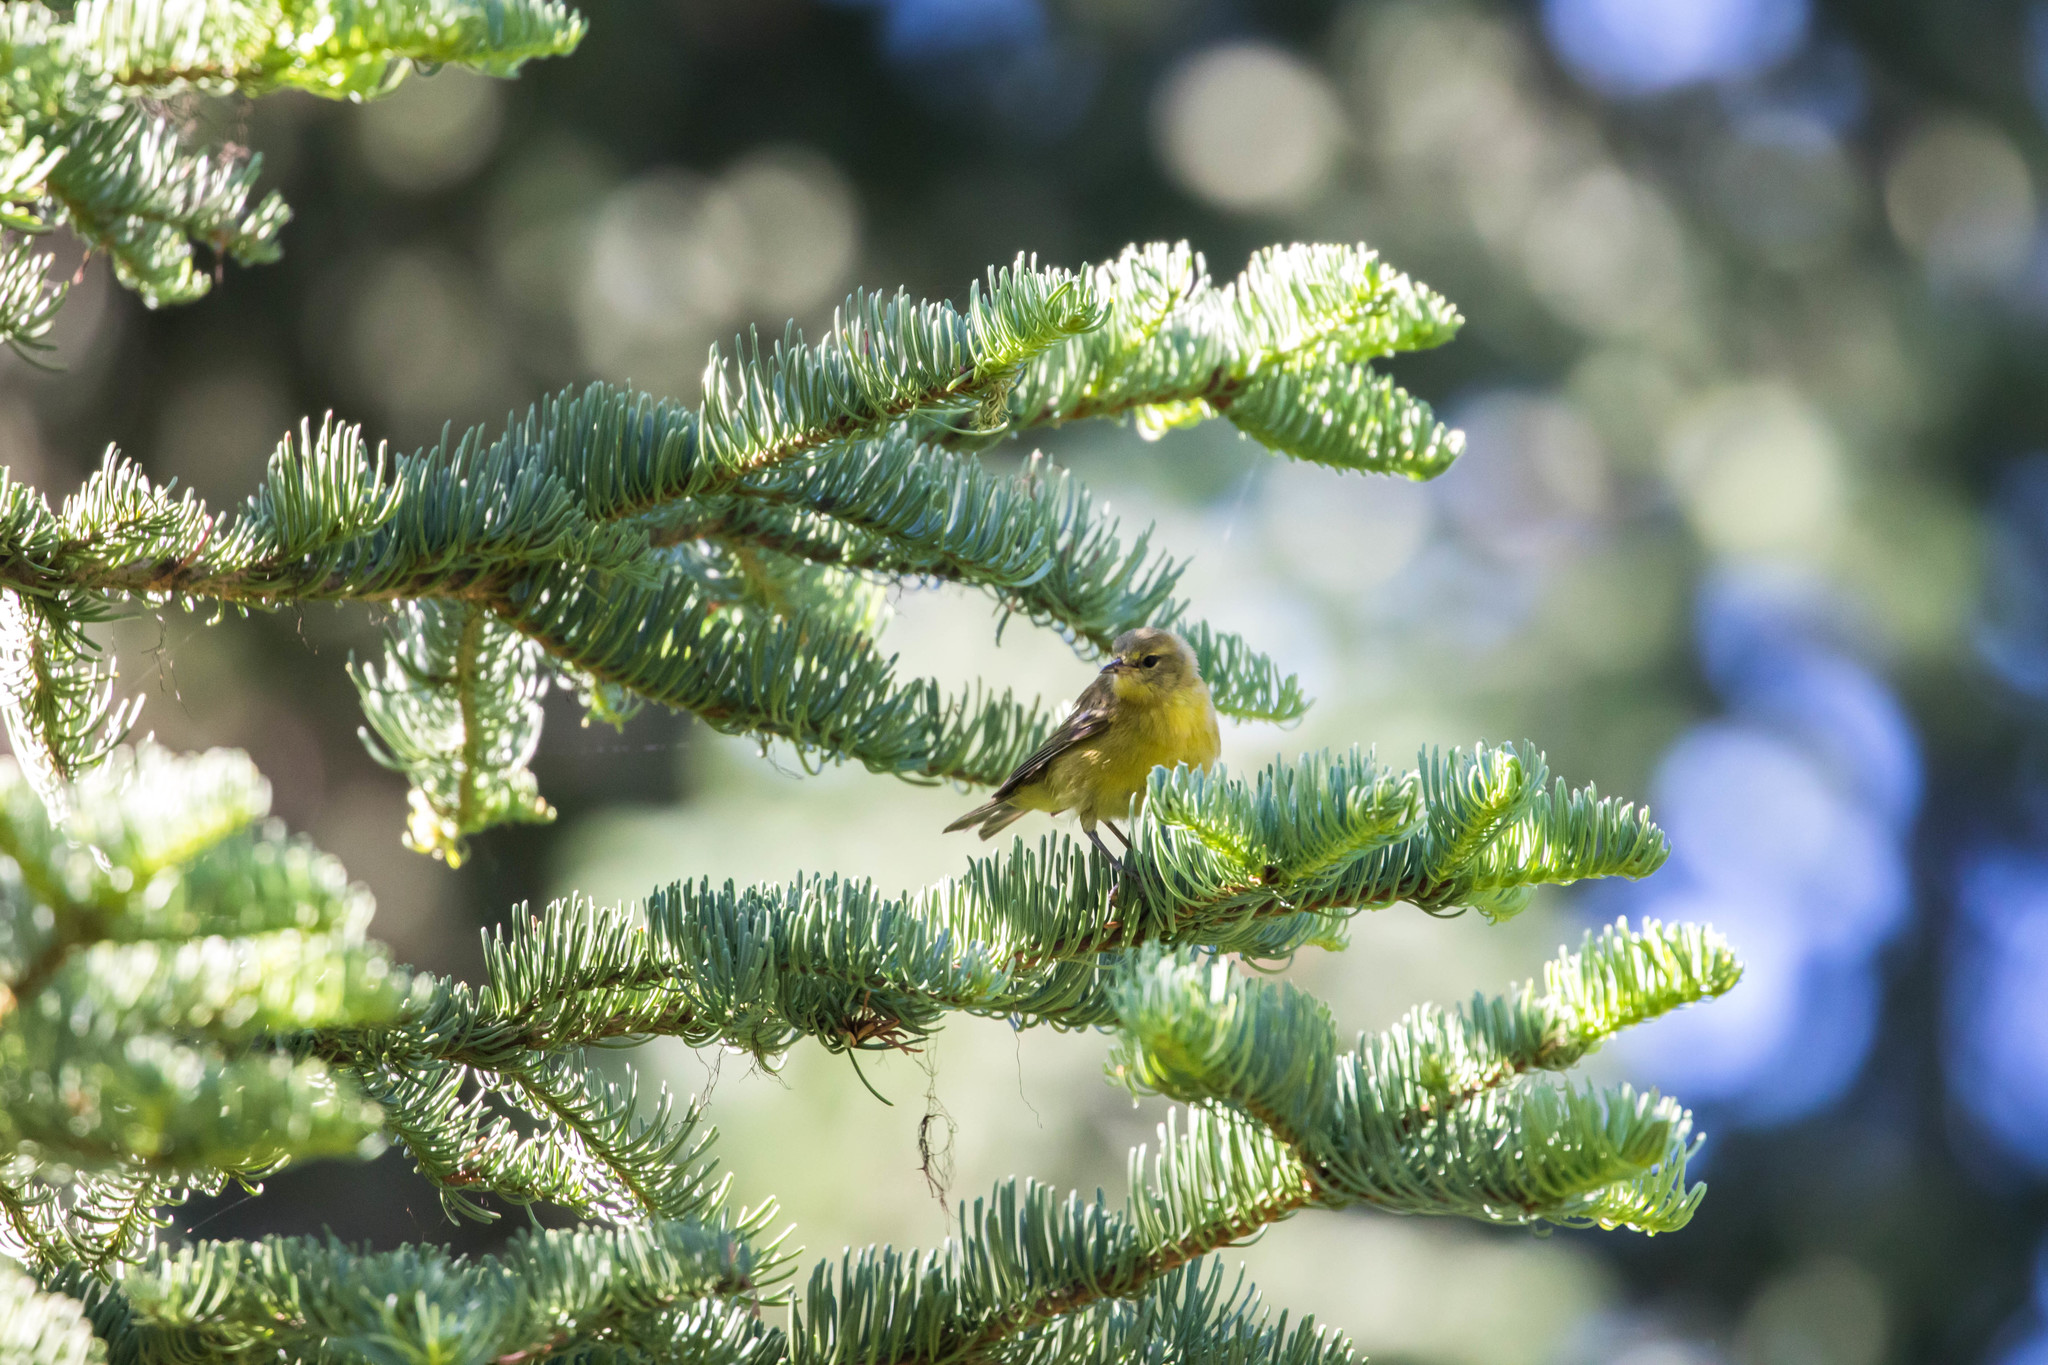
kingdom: Animalia
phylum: Chordata
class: Aves
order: Passeriformes
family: Parulidae
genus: Leiothlypis
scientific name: Leiothlypis celata
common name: Orange-crowned warbler
